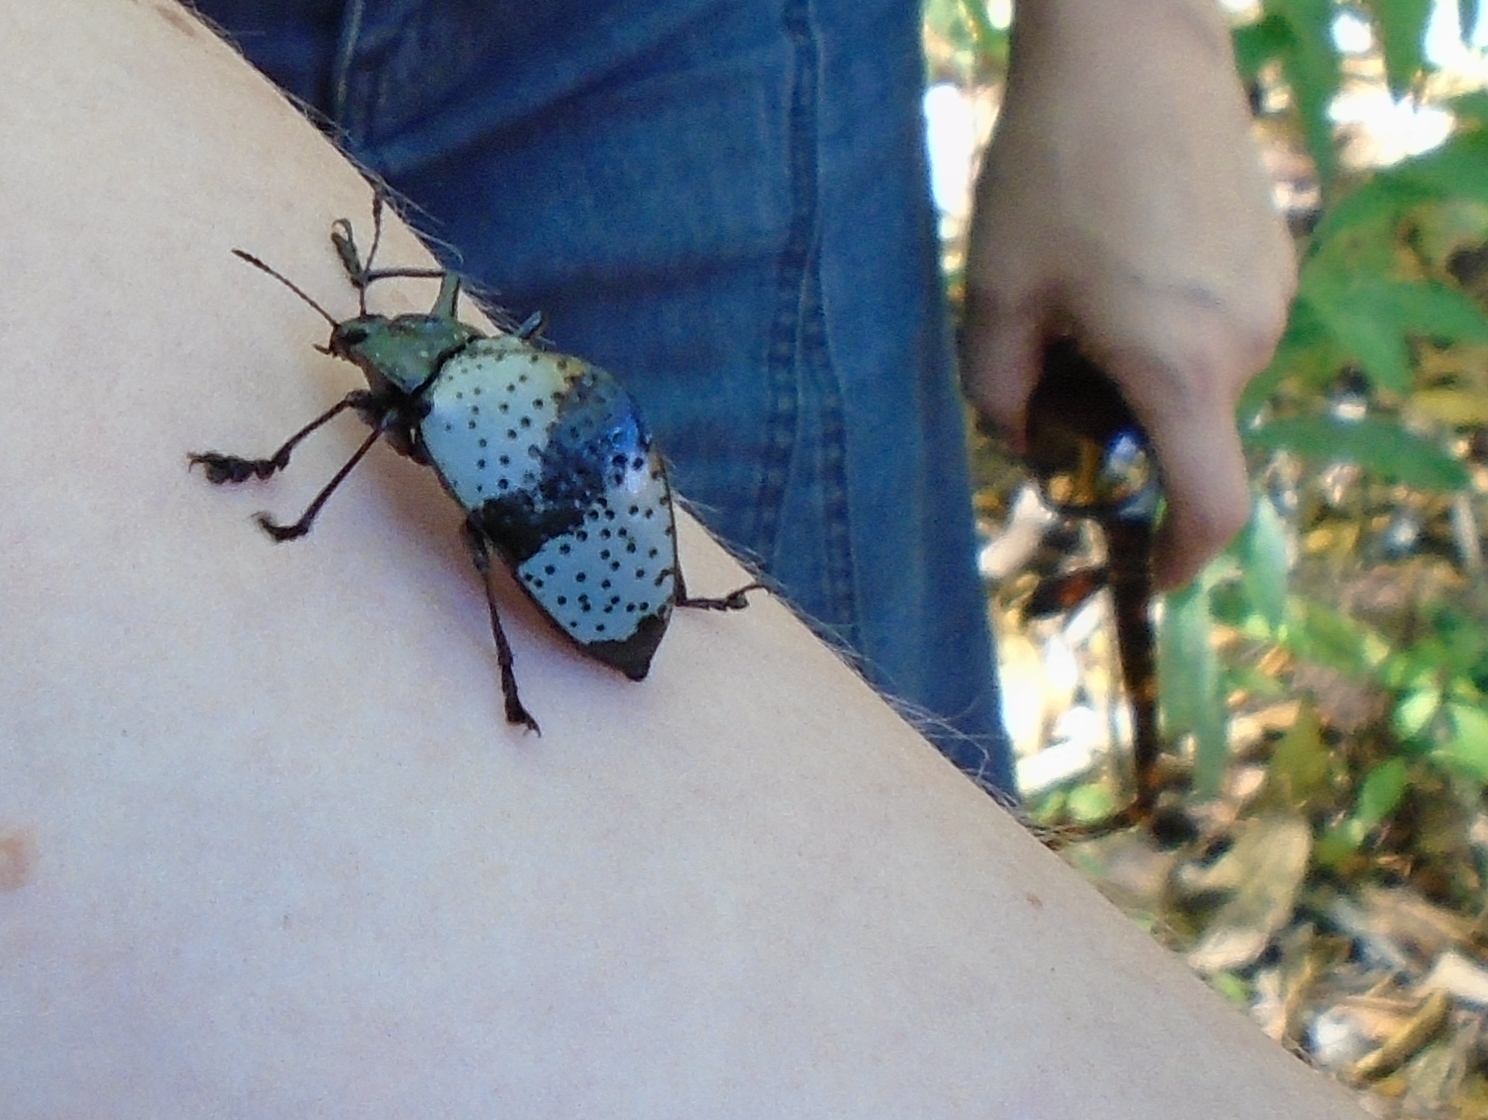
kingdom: Animalia
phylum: Arthropoda
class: Insecta
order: Coleoptera
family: Erotylidae
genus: Gibbifer
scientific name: Gibbifer
